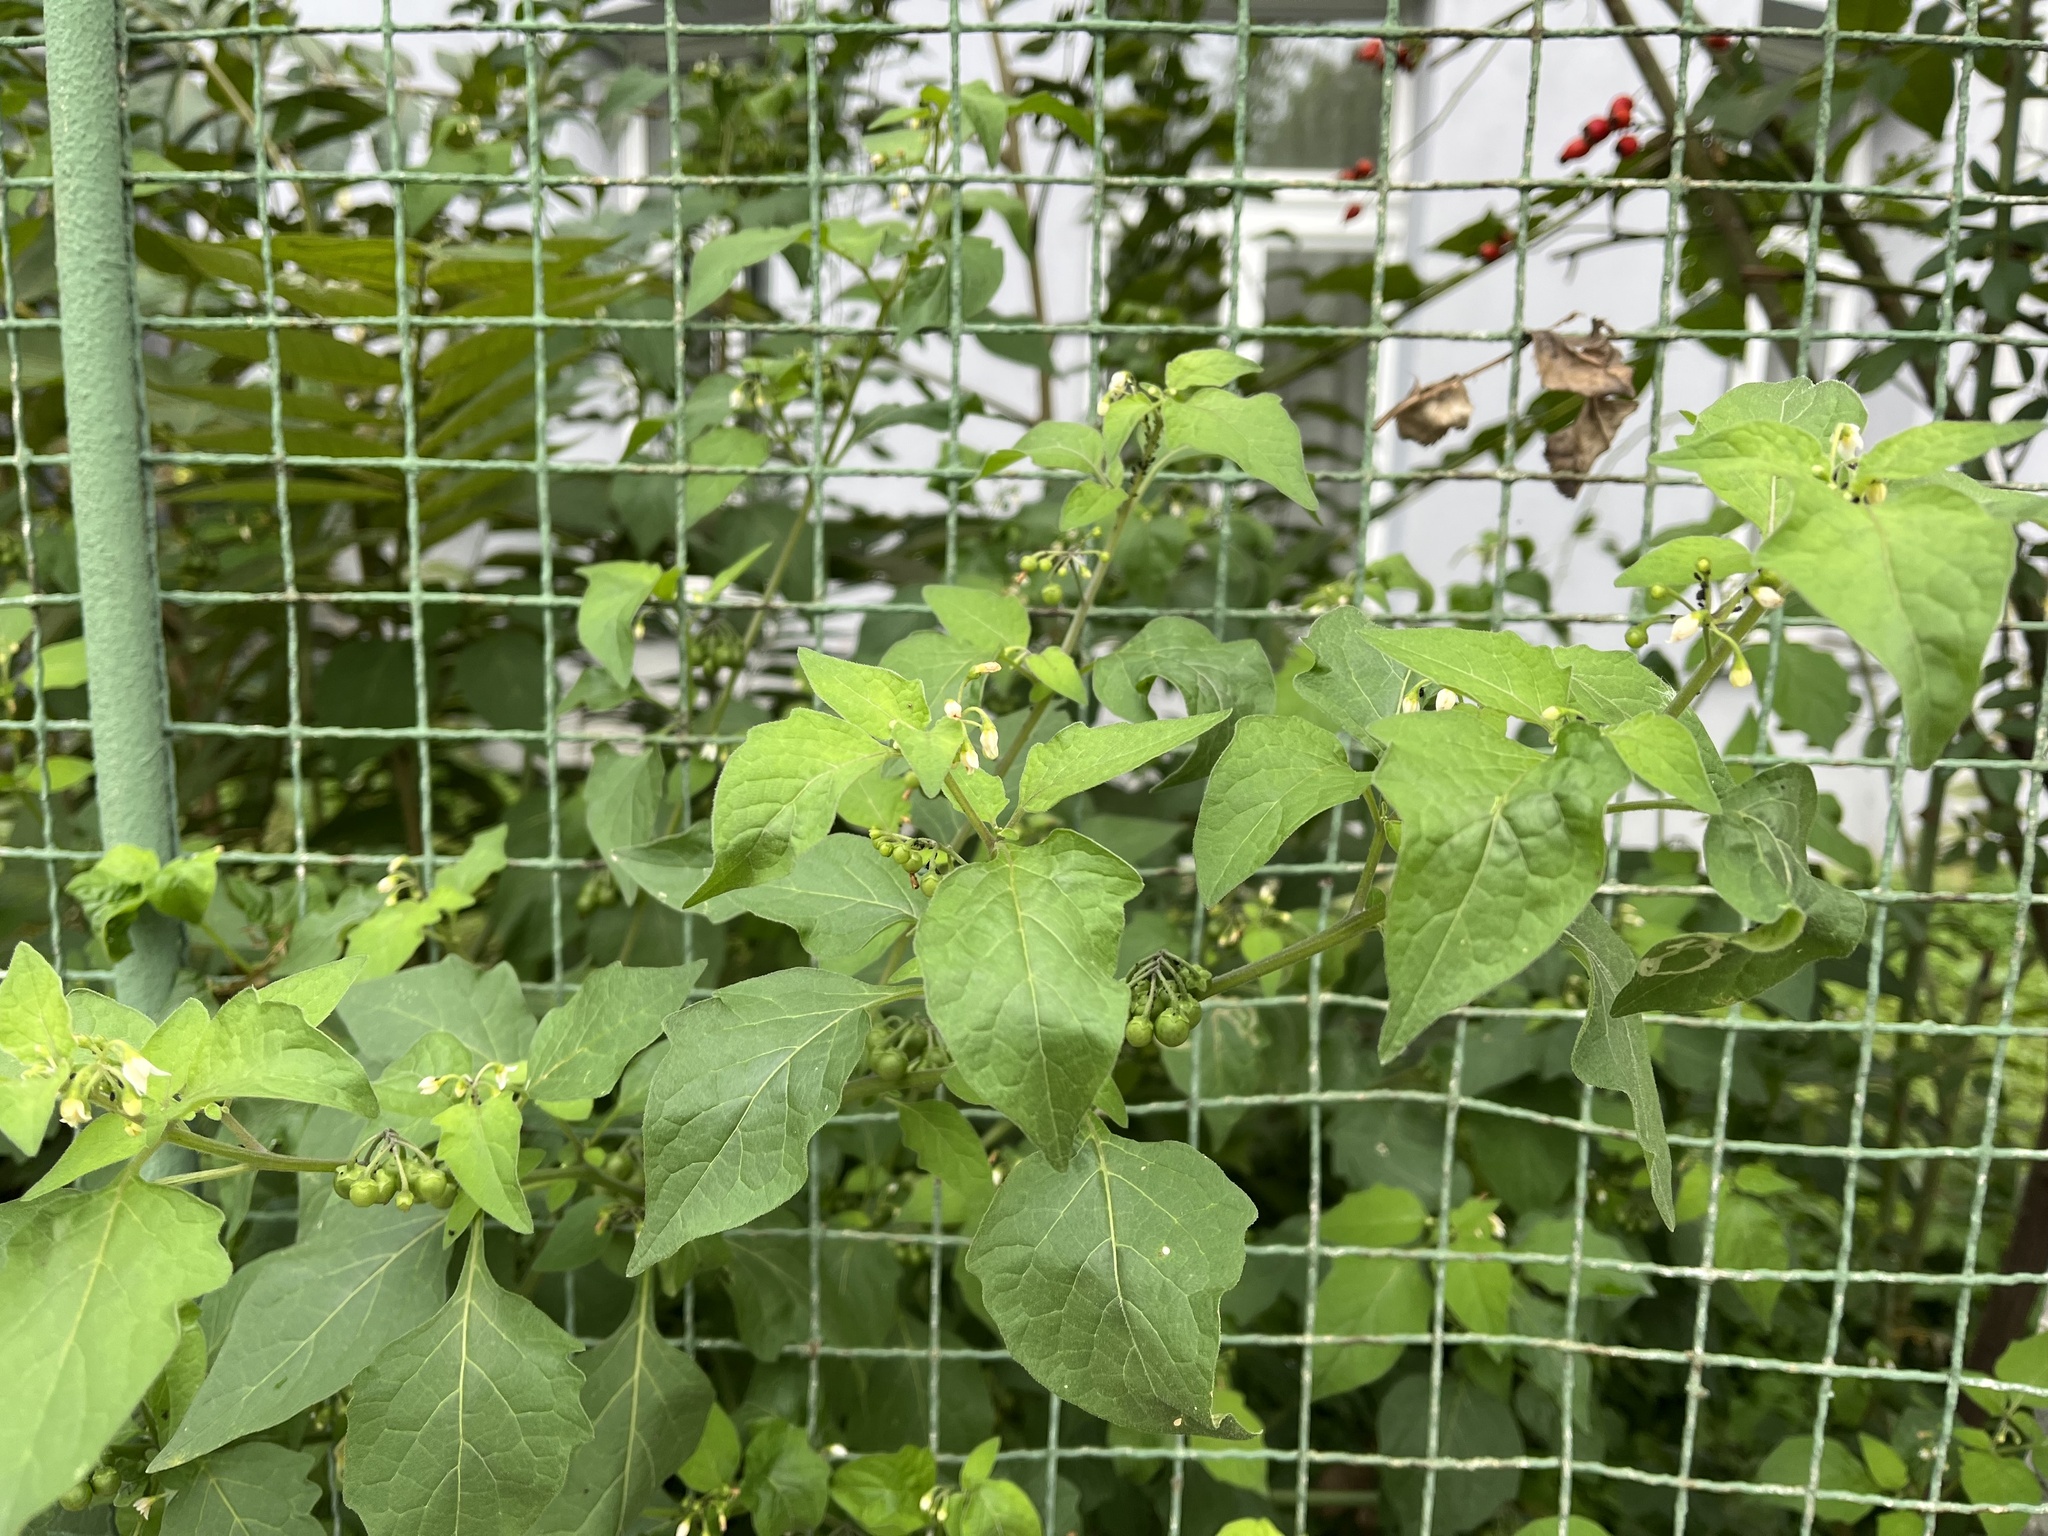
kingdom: Plantae
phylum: Tracheophyta
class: Magnoliopsida
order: Solanales
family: Solanaceae
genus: Solanum
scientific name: Solanum nigrum
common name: Black nightshade
